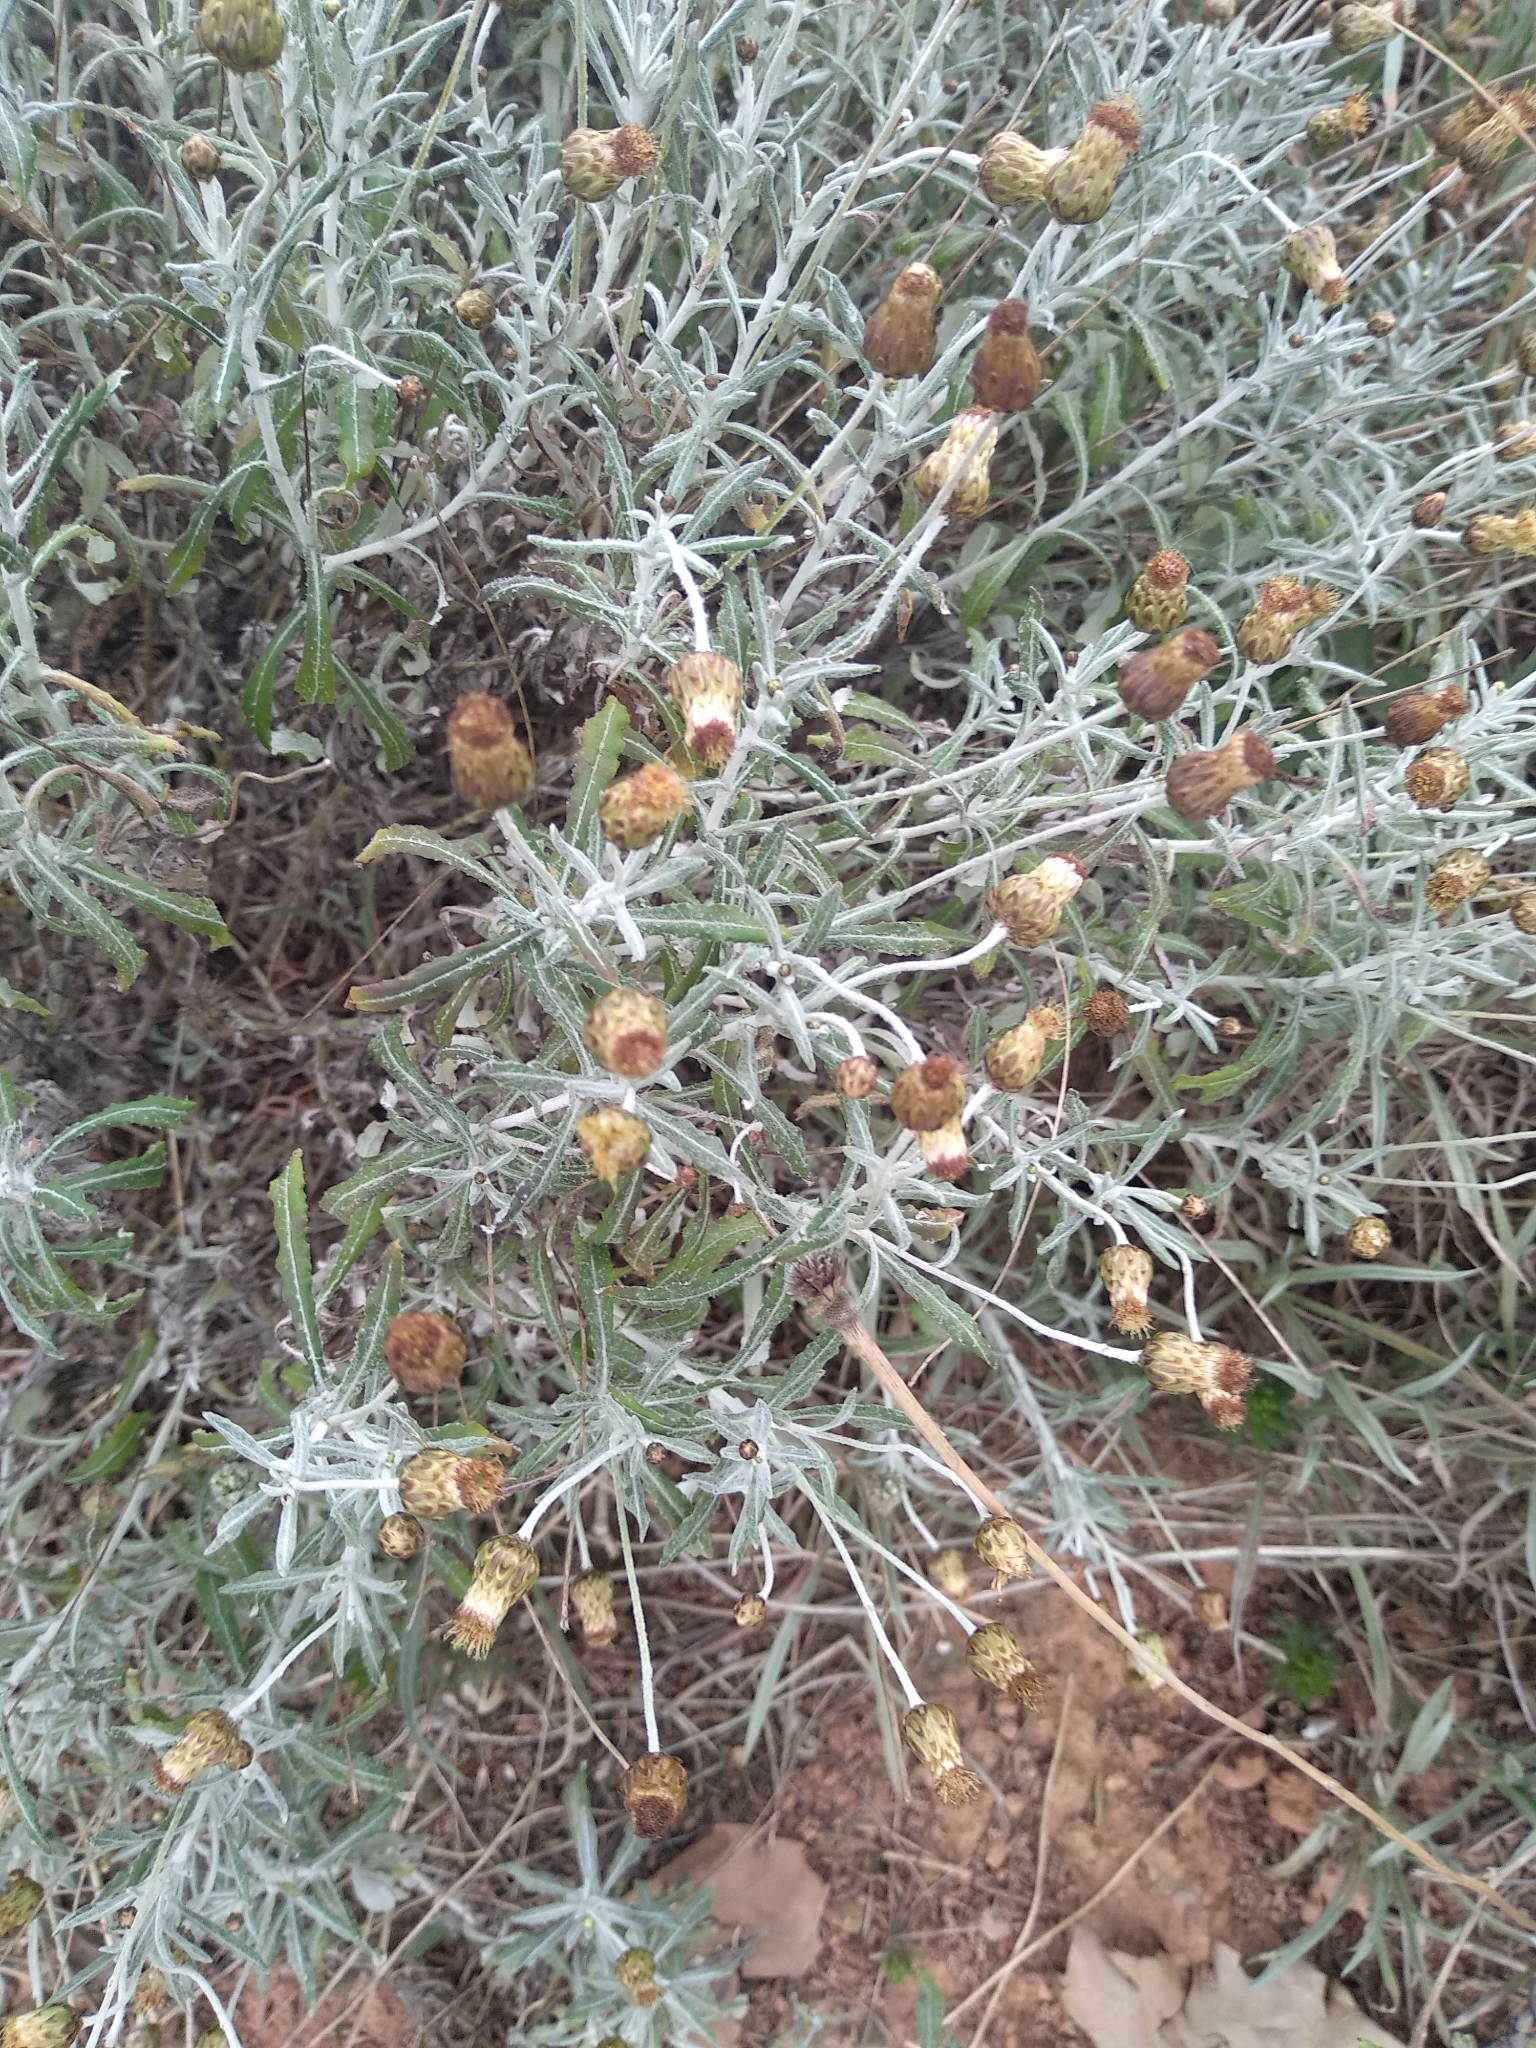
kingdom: Plantae
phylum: Tracheophyta
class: Magnoliopsida
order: Asterales
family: Asteraceae
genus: Phagnalon
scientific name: Phagnalon rupestre
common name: Rock phagnalon
